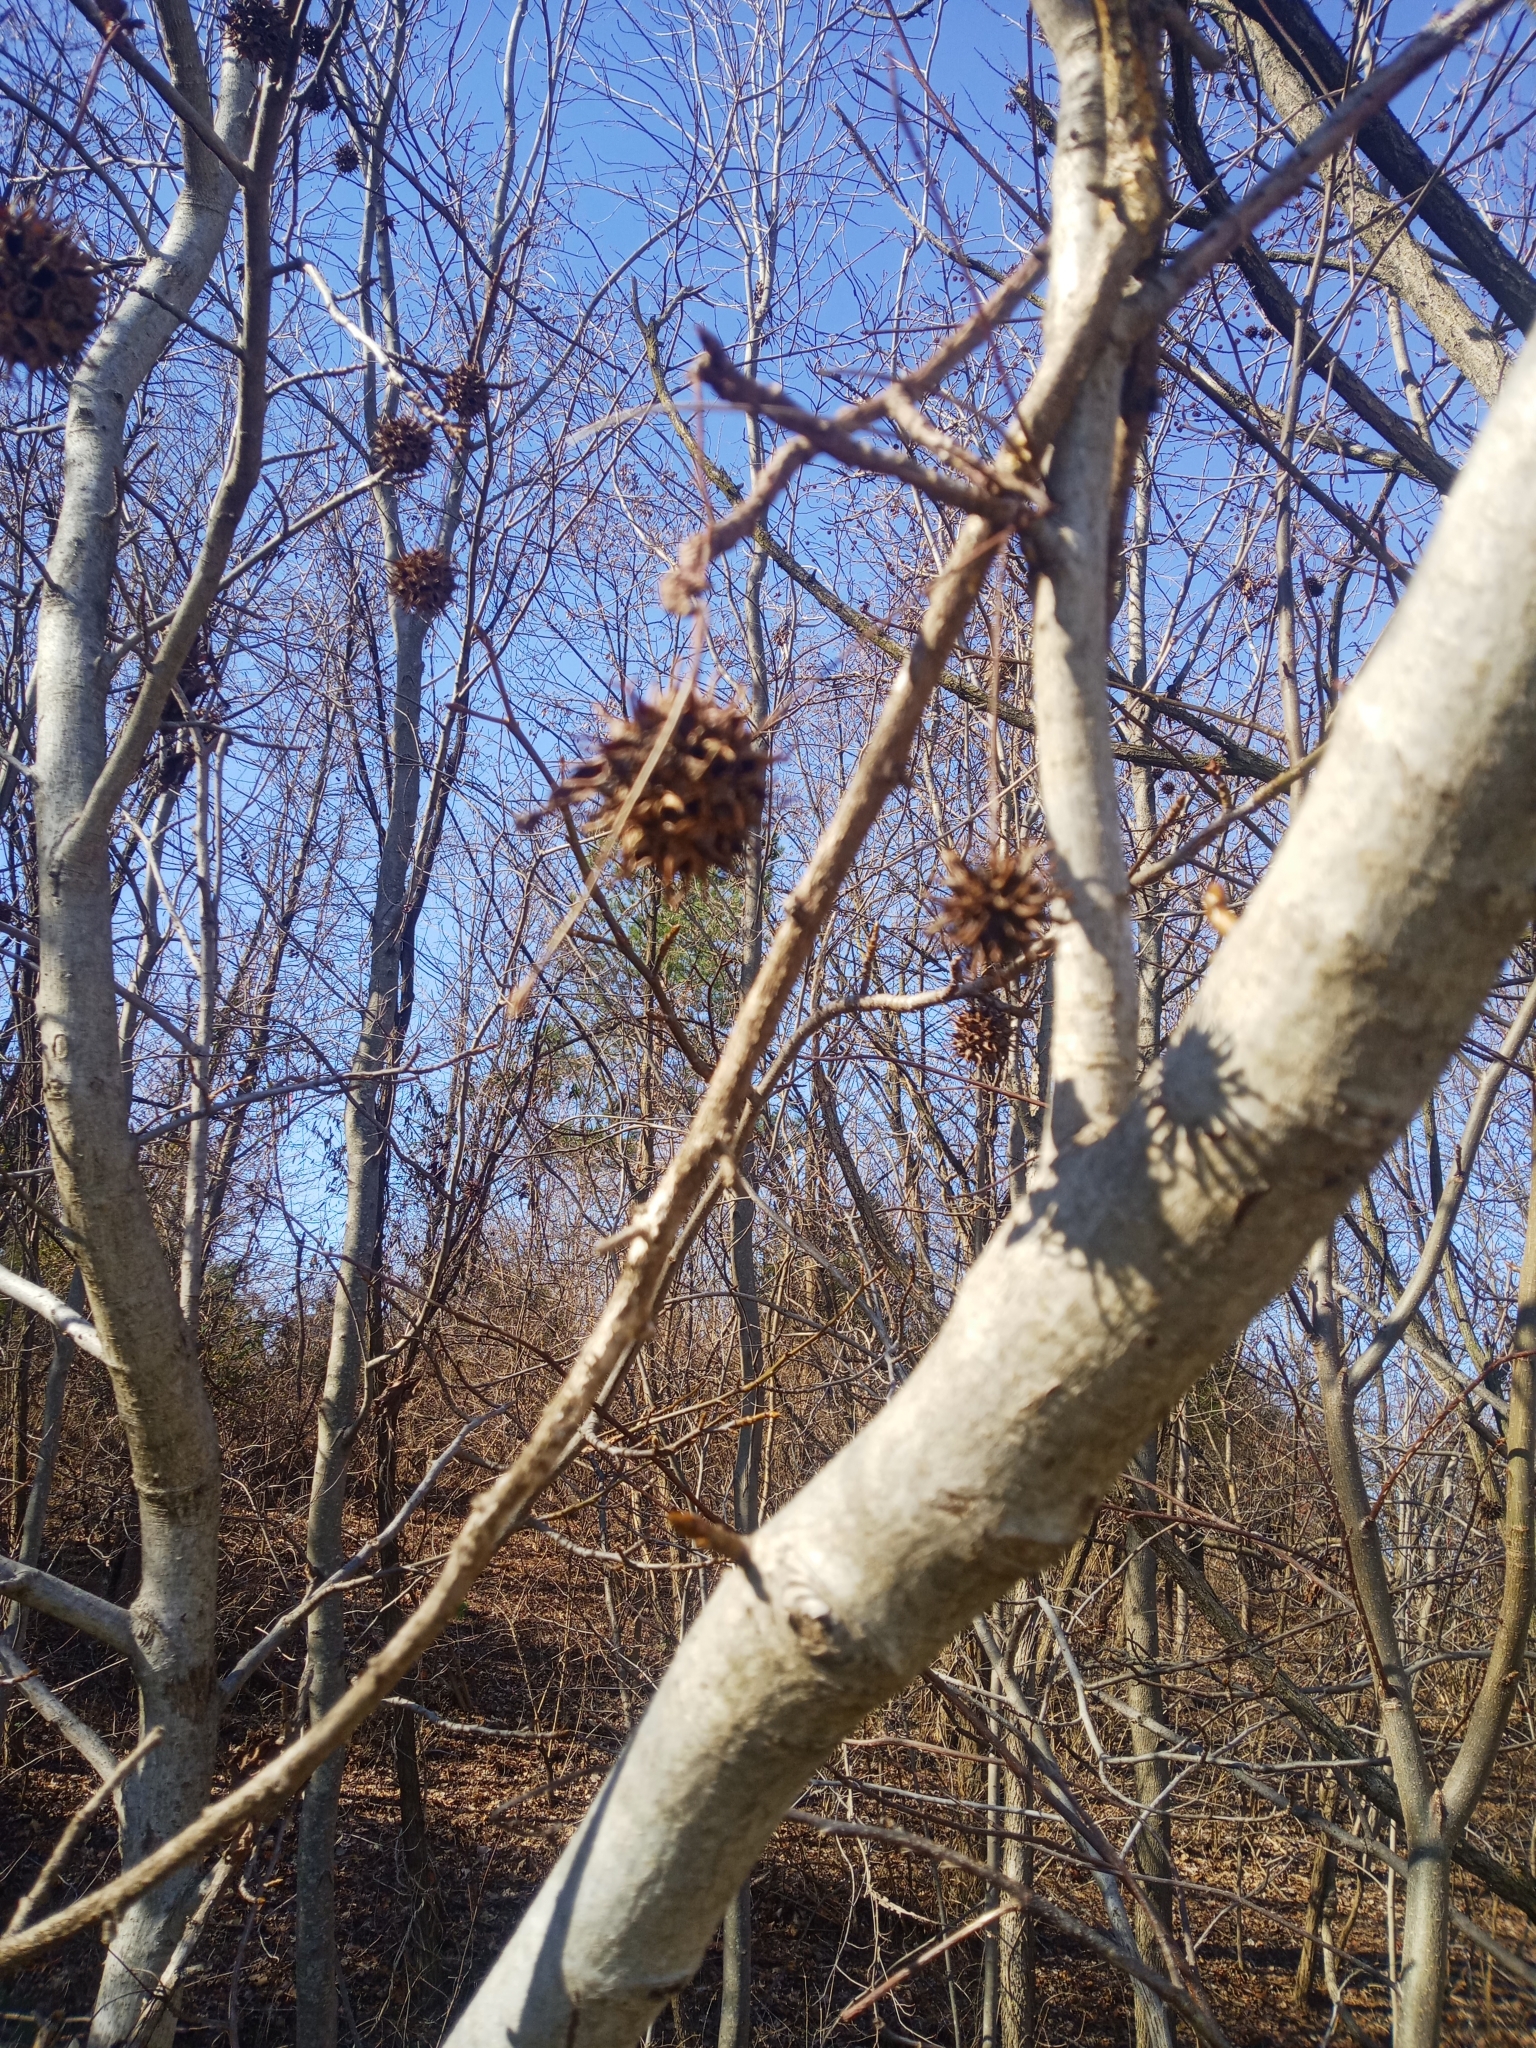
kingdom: Plantae
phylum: Tracheophyta
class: Magnoliopsida
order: Saxifragales
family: Altingiaceae
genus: Liquidambar
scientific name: Liquidambar styraciflua
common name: Sweet gum
